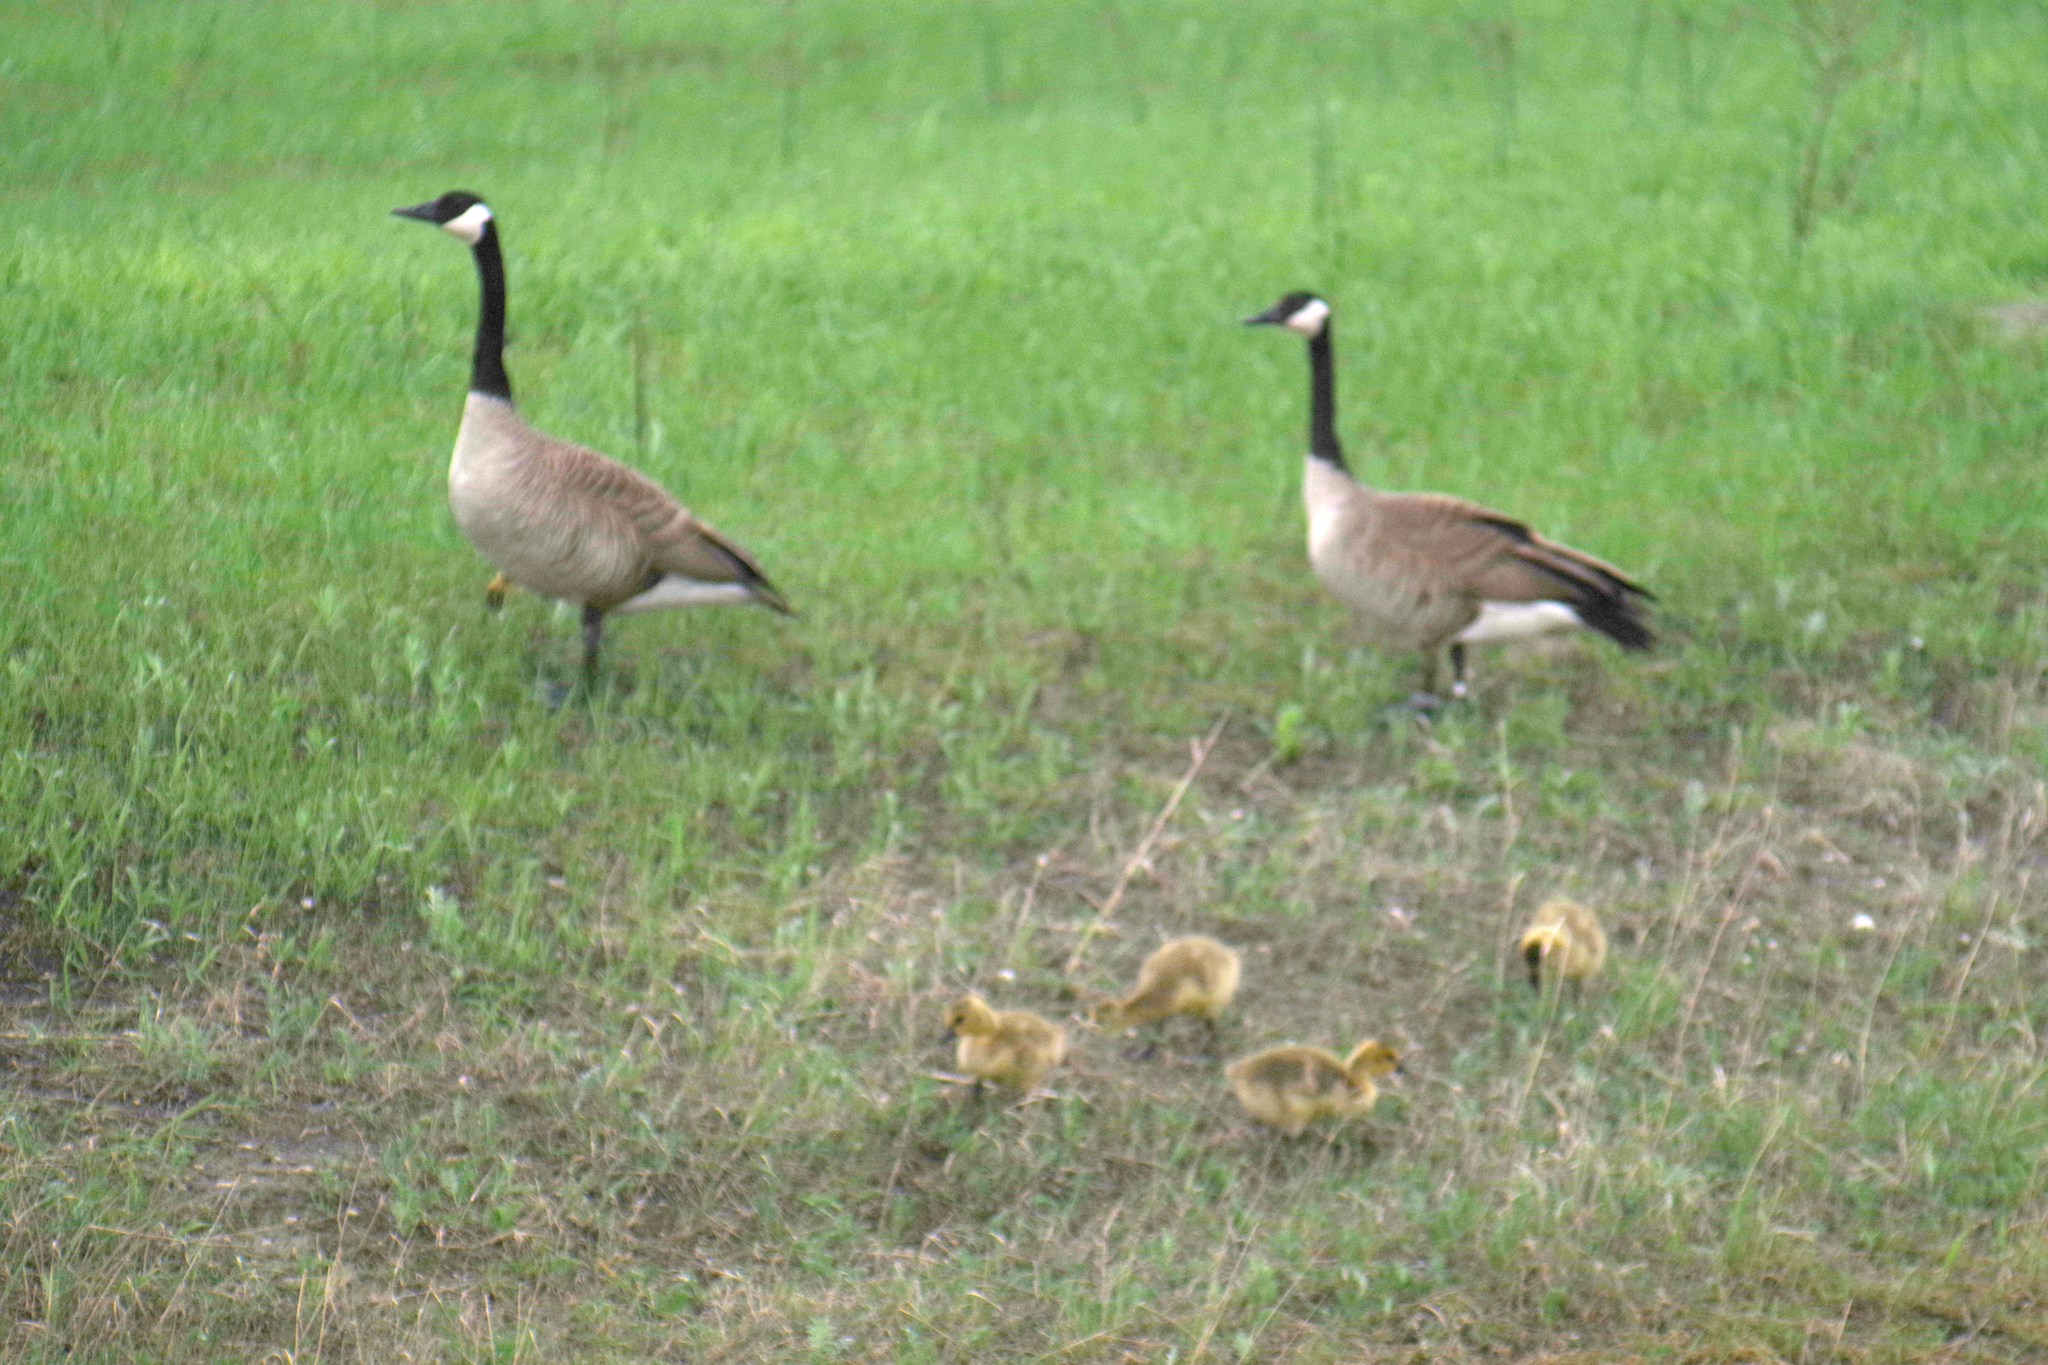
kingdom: Animalia
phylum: Chordata
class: Aves
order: Anseriformes
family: Anatidae
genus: Branta
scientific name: Branta canadensis
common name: Canada goose
